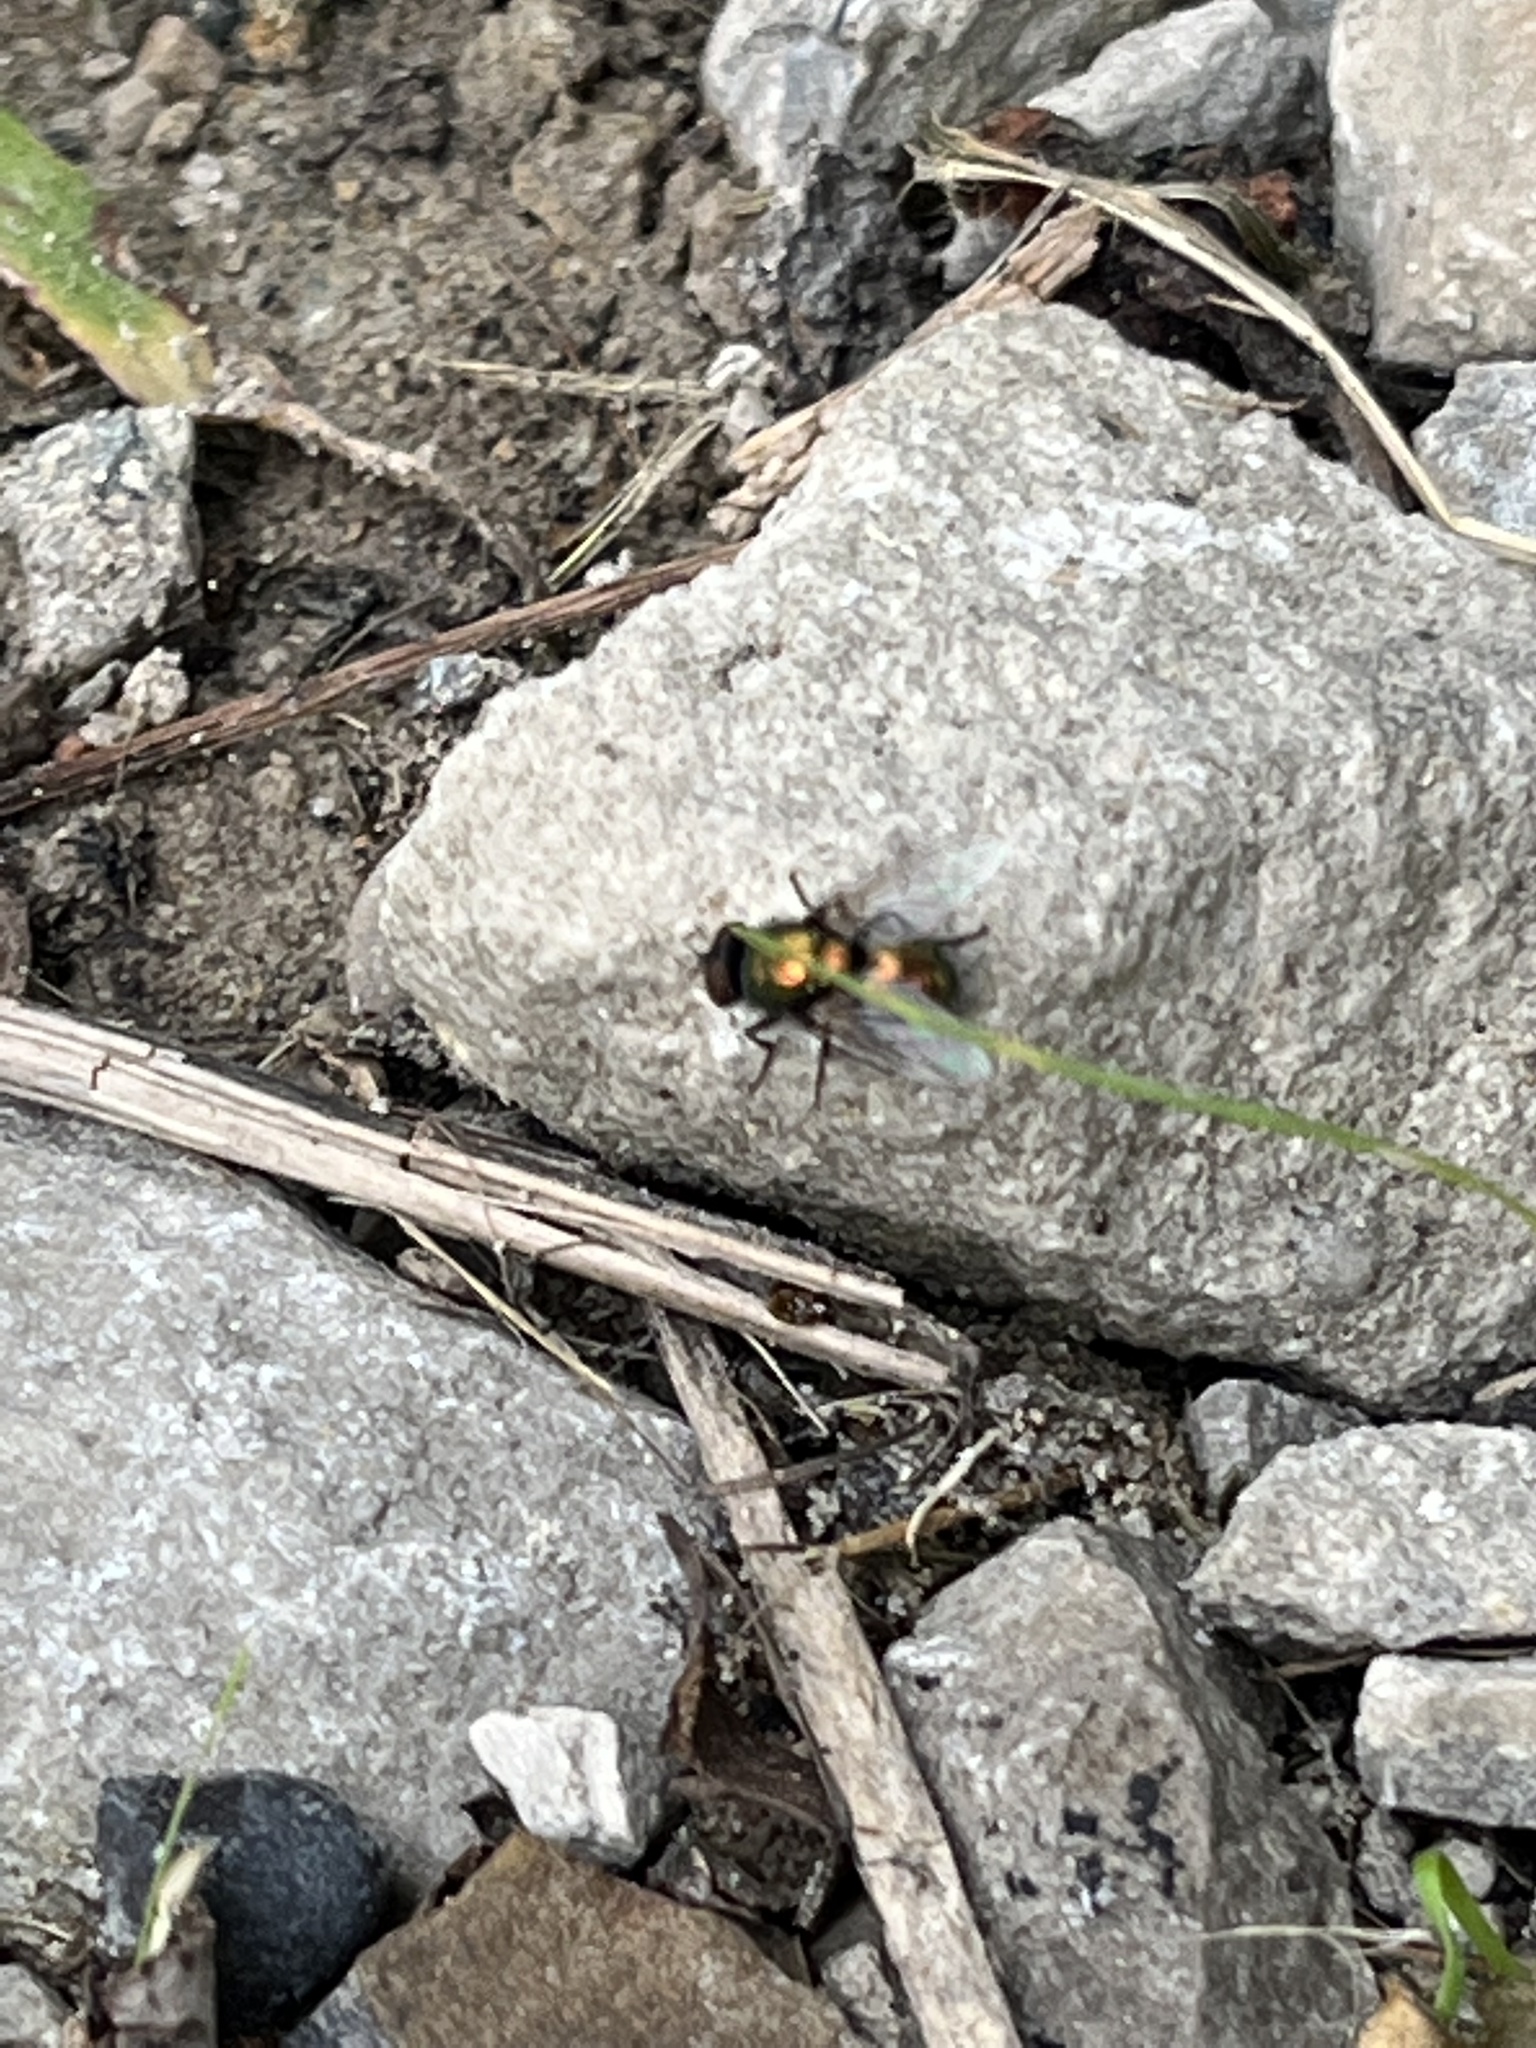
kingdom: Animalia
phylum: Arthropoda
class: Insecta
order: Diptera
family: Calliphoridae
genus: Lucilia
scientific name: Lucilia
